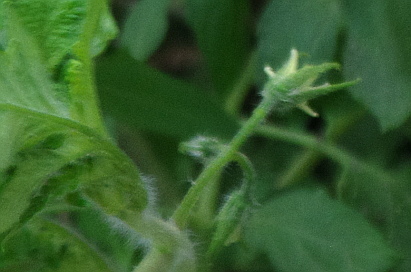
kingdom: Plantae
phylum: Tracheophyta
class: Magnoliopsida
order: Solanales
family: Solanaceae
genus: Solanum
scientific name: Solanum lycopersicum
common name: Garden tomato
